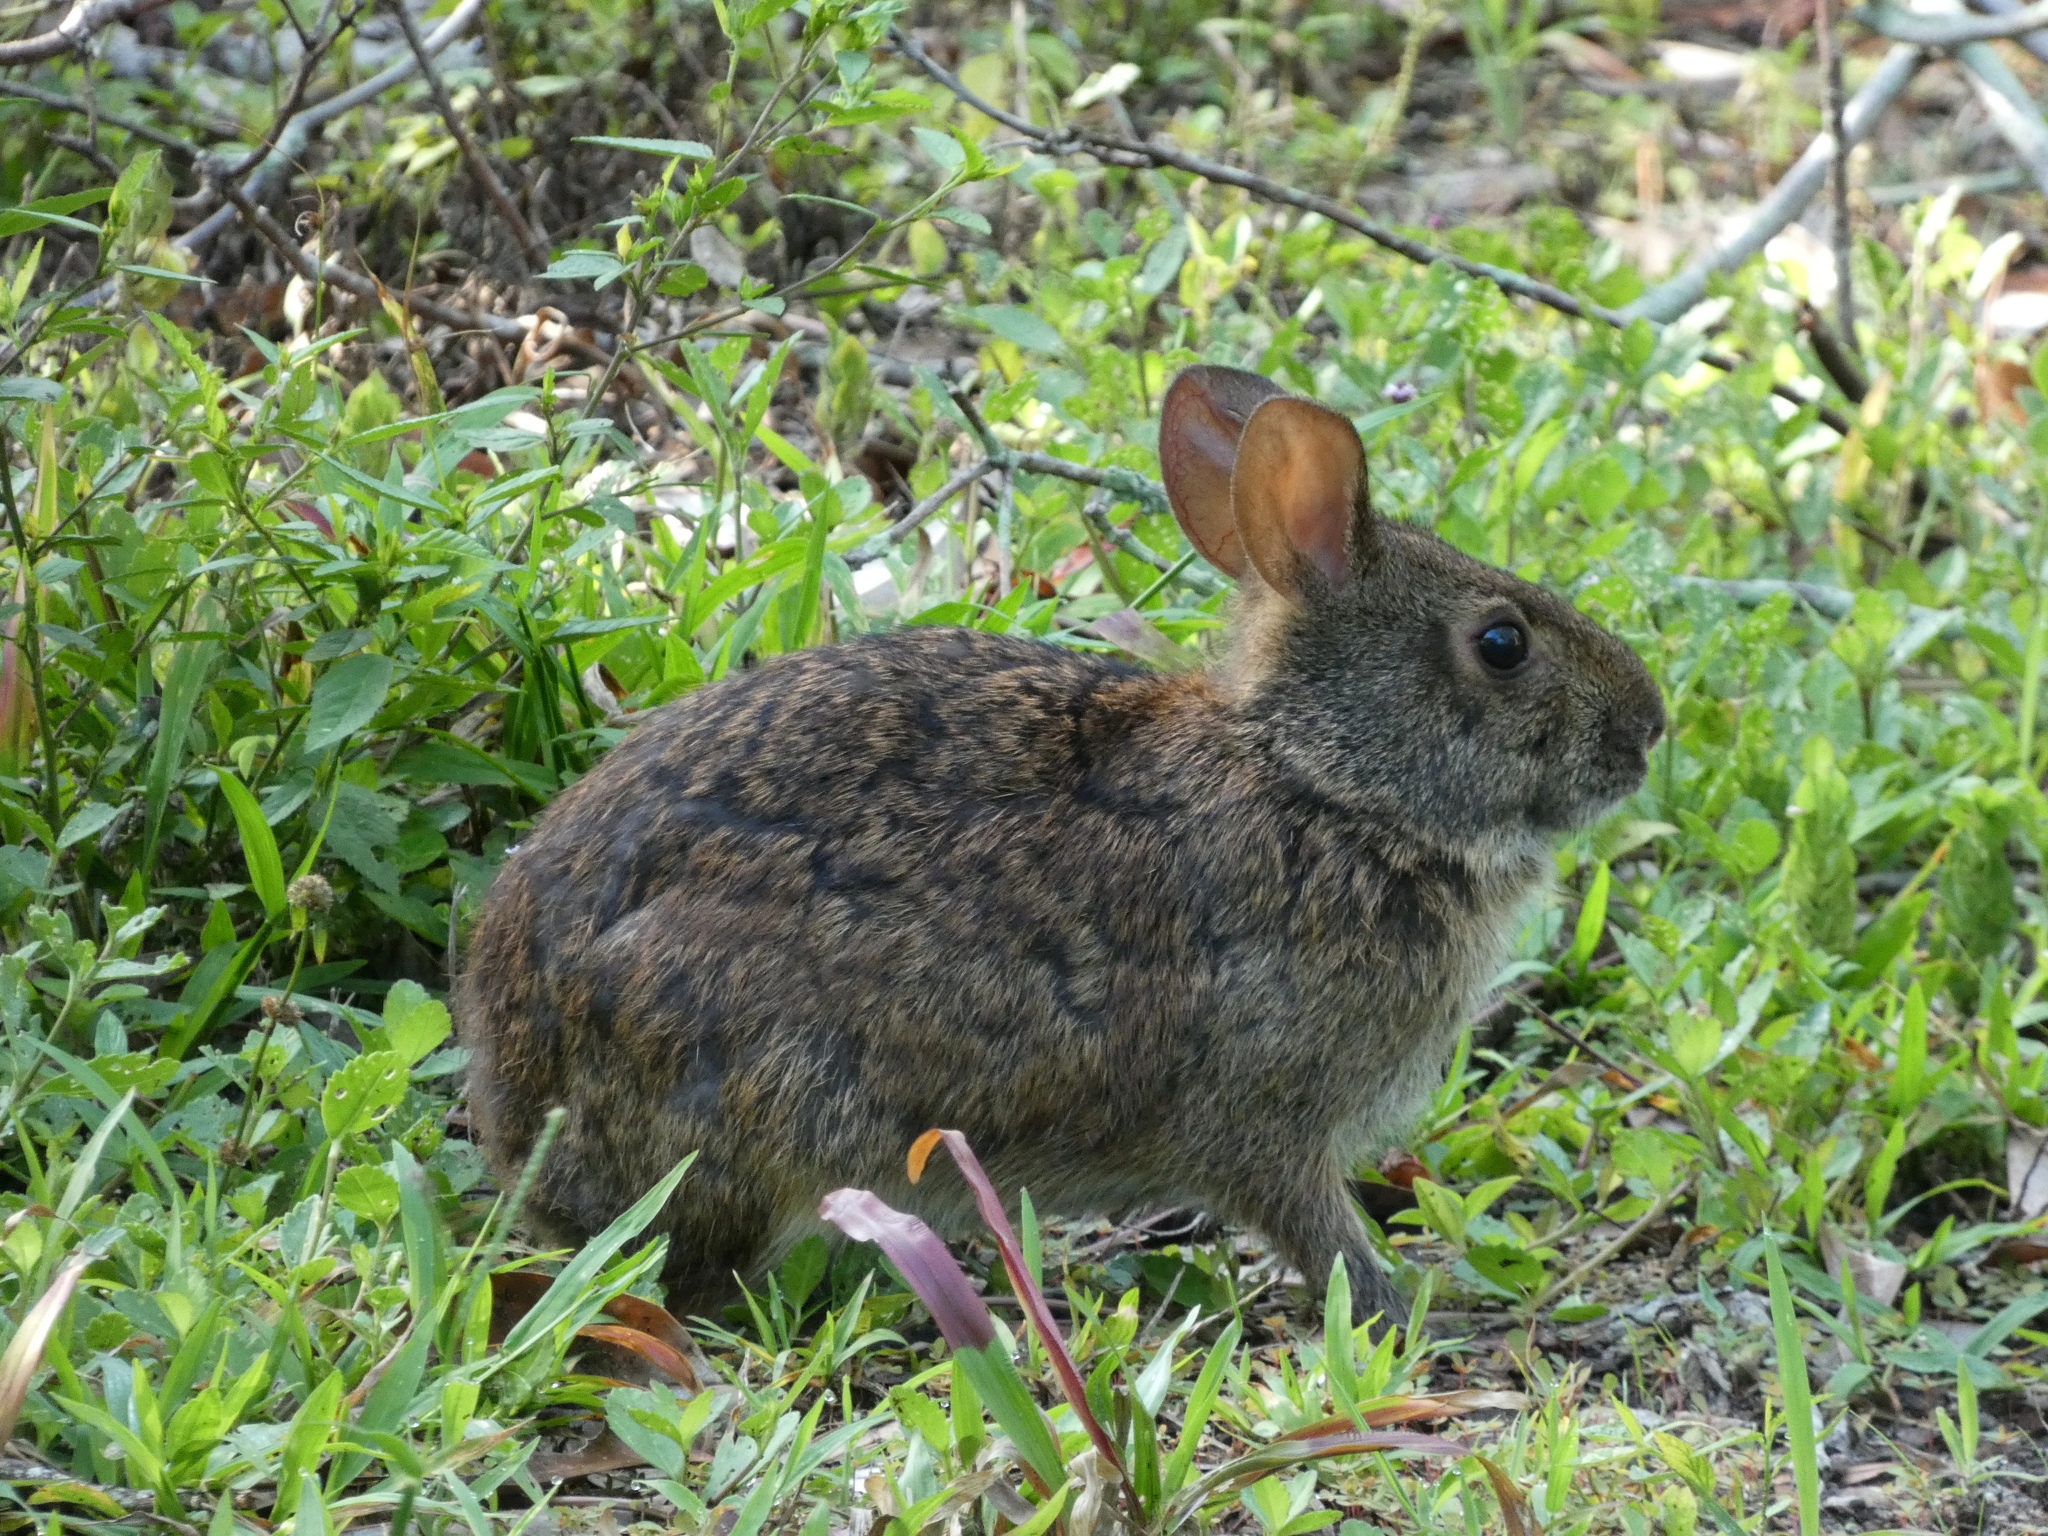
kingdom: Animalia
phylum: Chordata
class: Mammalia
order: Lagomorpha
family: Leporidae
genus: Sylvilagus
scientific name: Sylvilagus palustris
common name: Marsh rabbit
